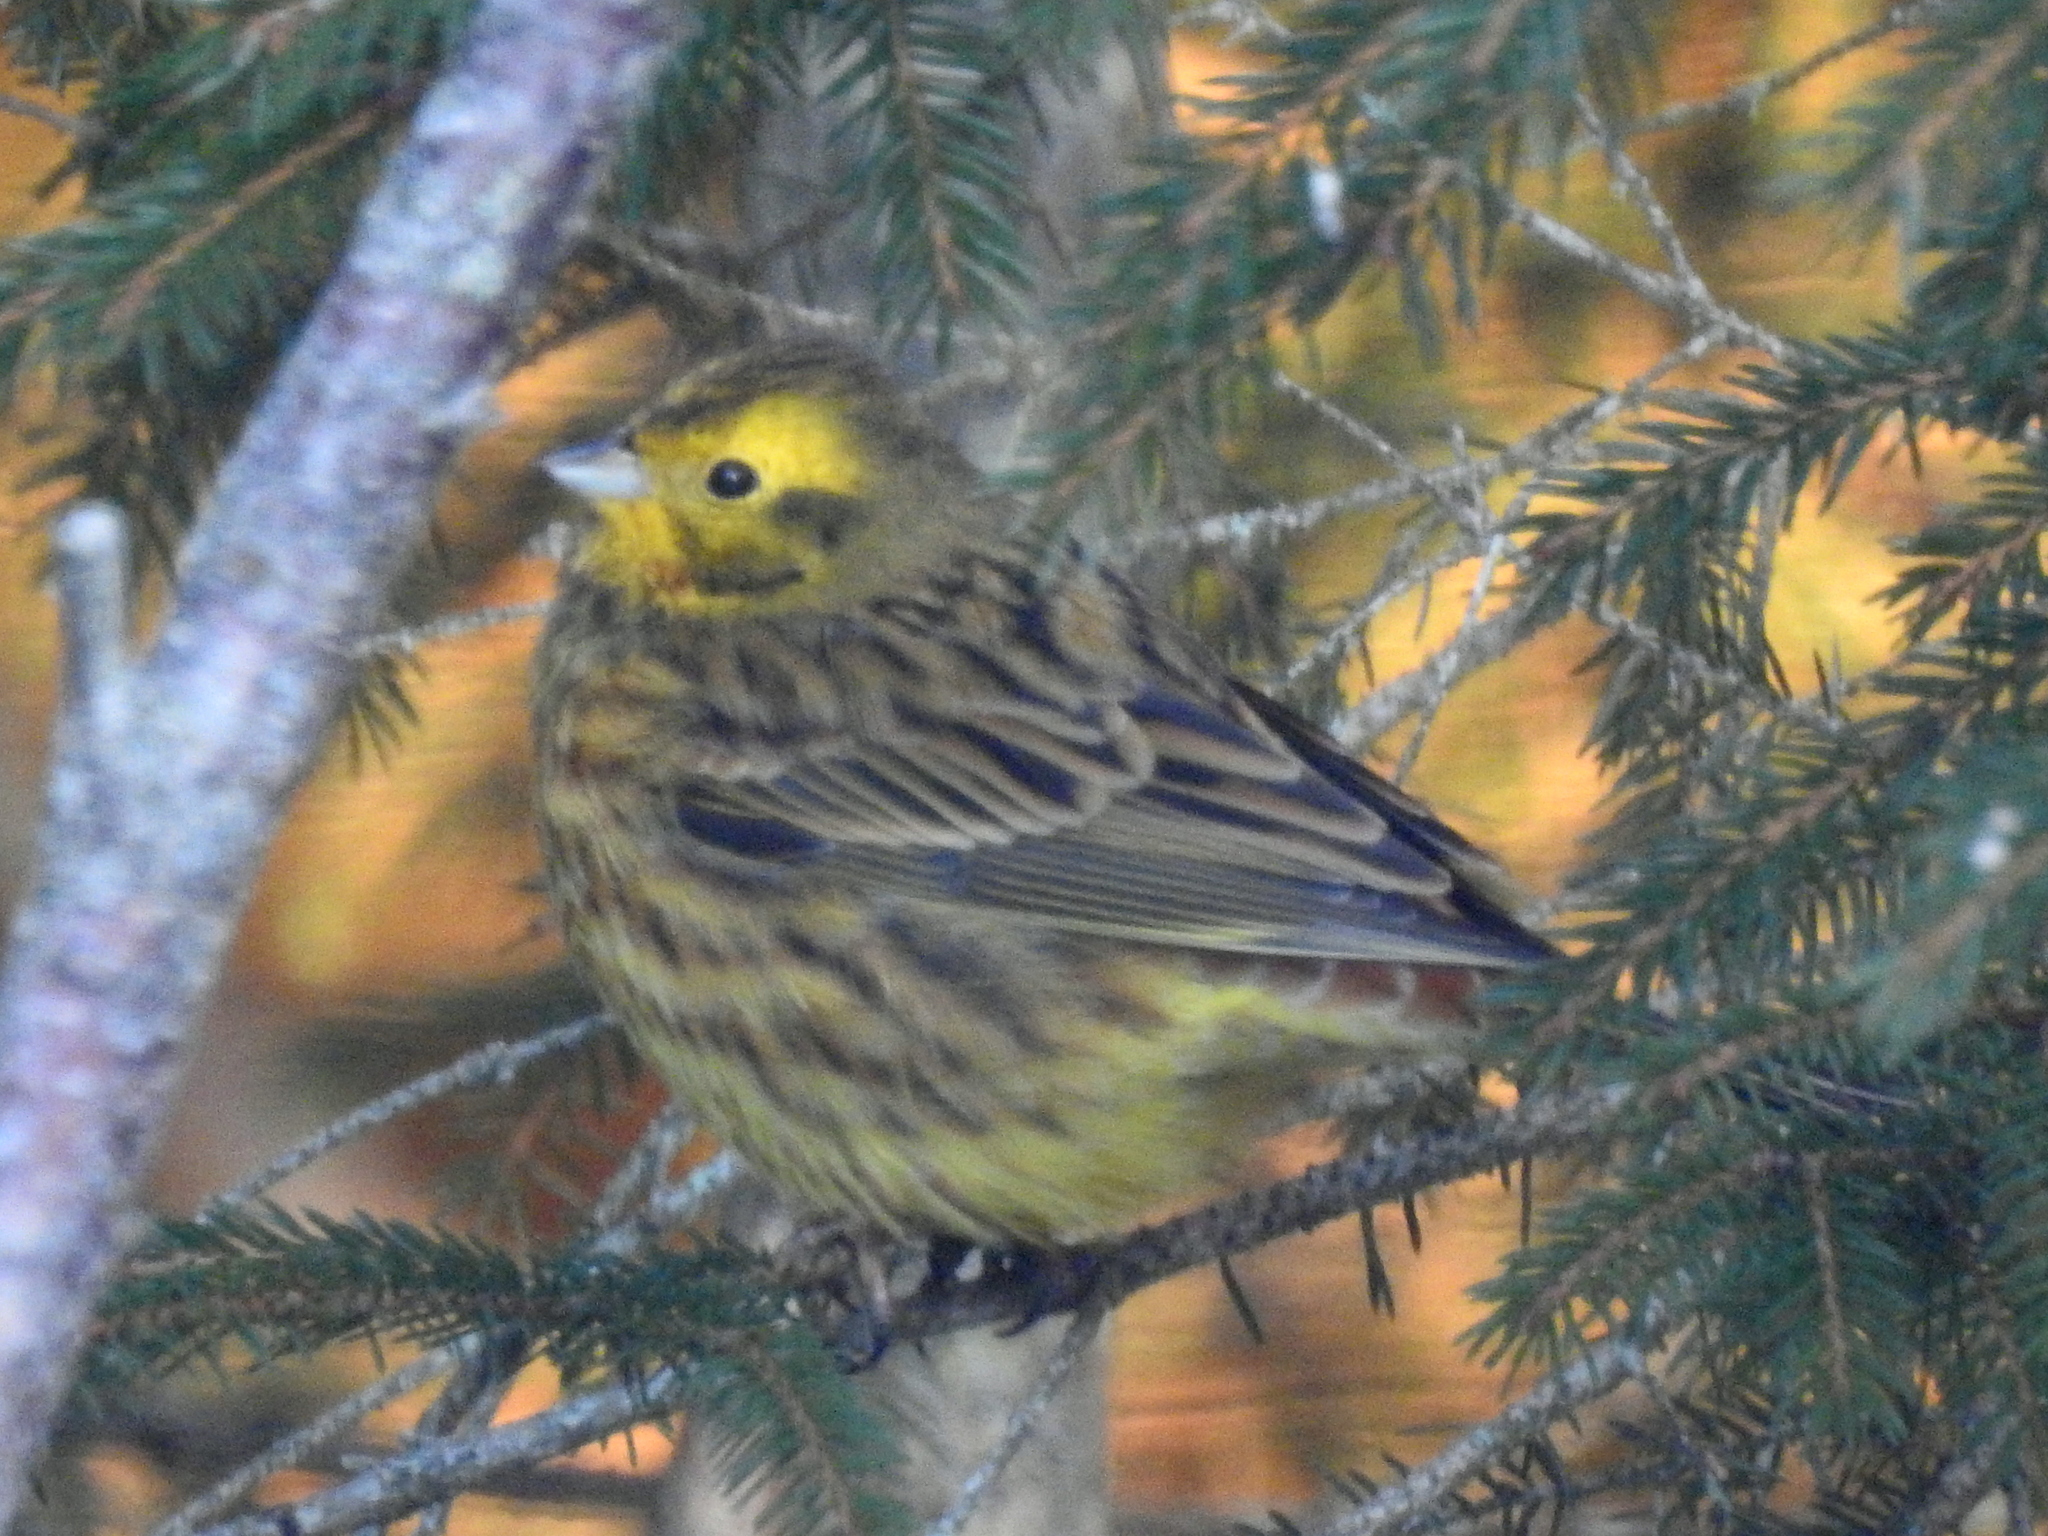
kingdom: Animalia
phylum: Chordata
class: Aves
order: Passeriformes
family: Emberizidae
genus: Emberiza
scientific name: Emberiza citrinella
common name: Yellowhammer
